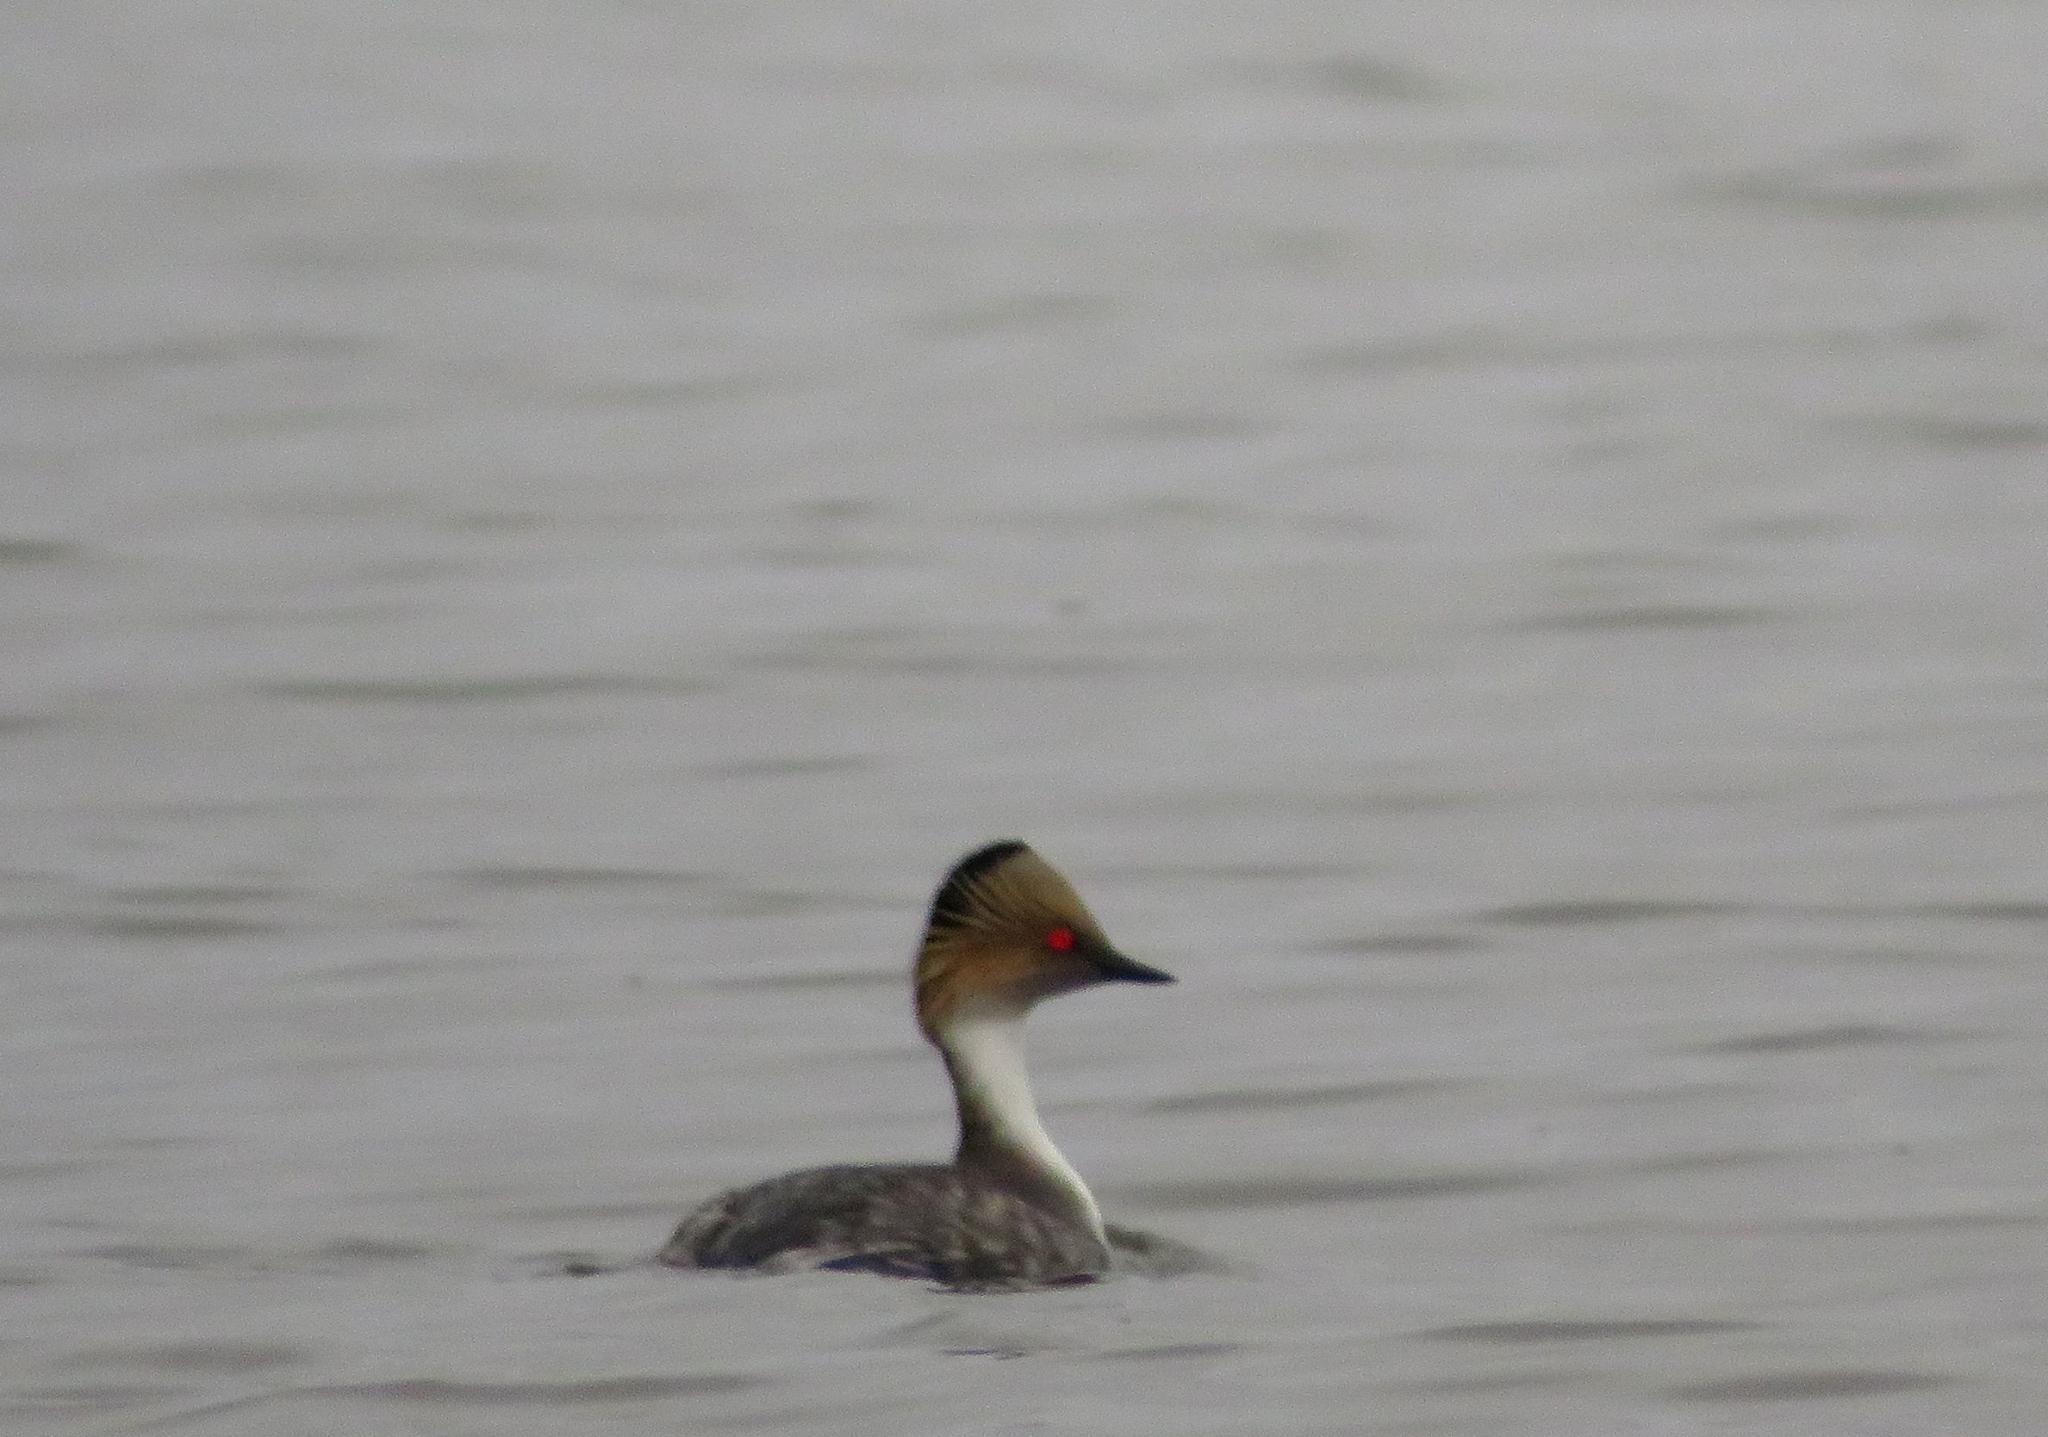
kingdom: Animalia
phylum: Chordata
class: Aves
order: Podicipediformes
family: Podicipedidae
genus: Podiceps
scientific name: Podiceps occipitalis
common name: Silvery grebe
